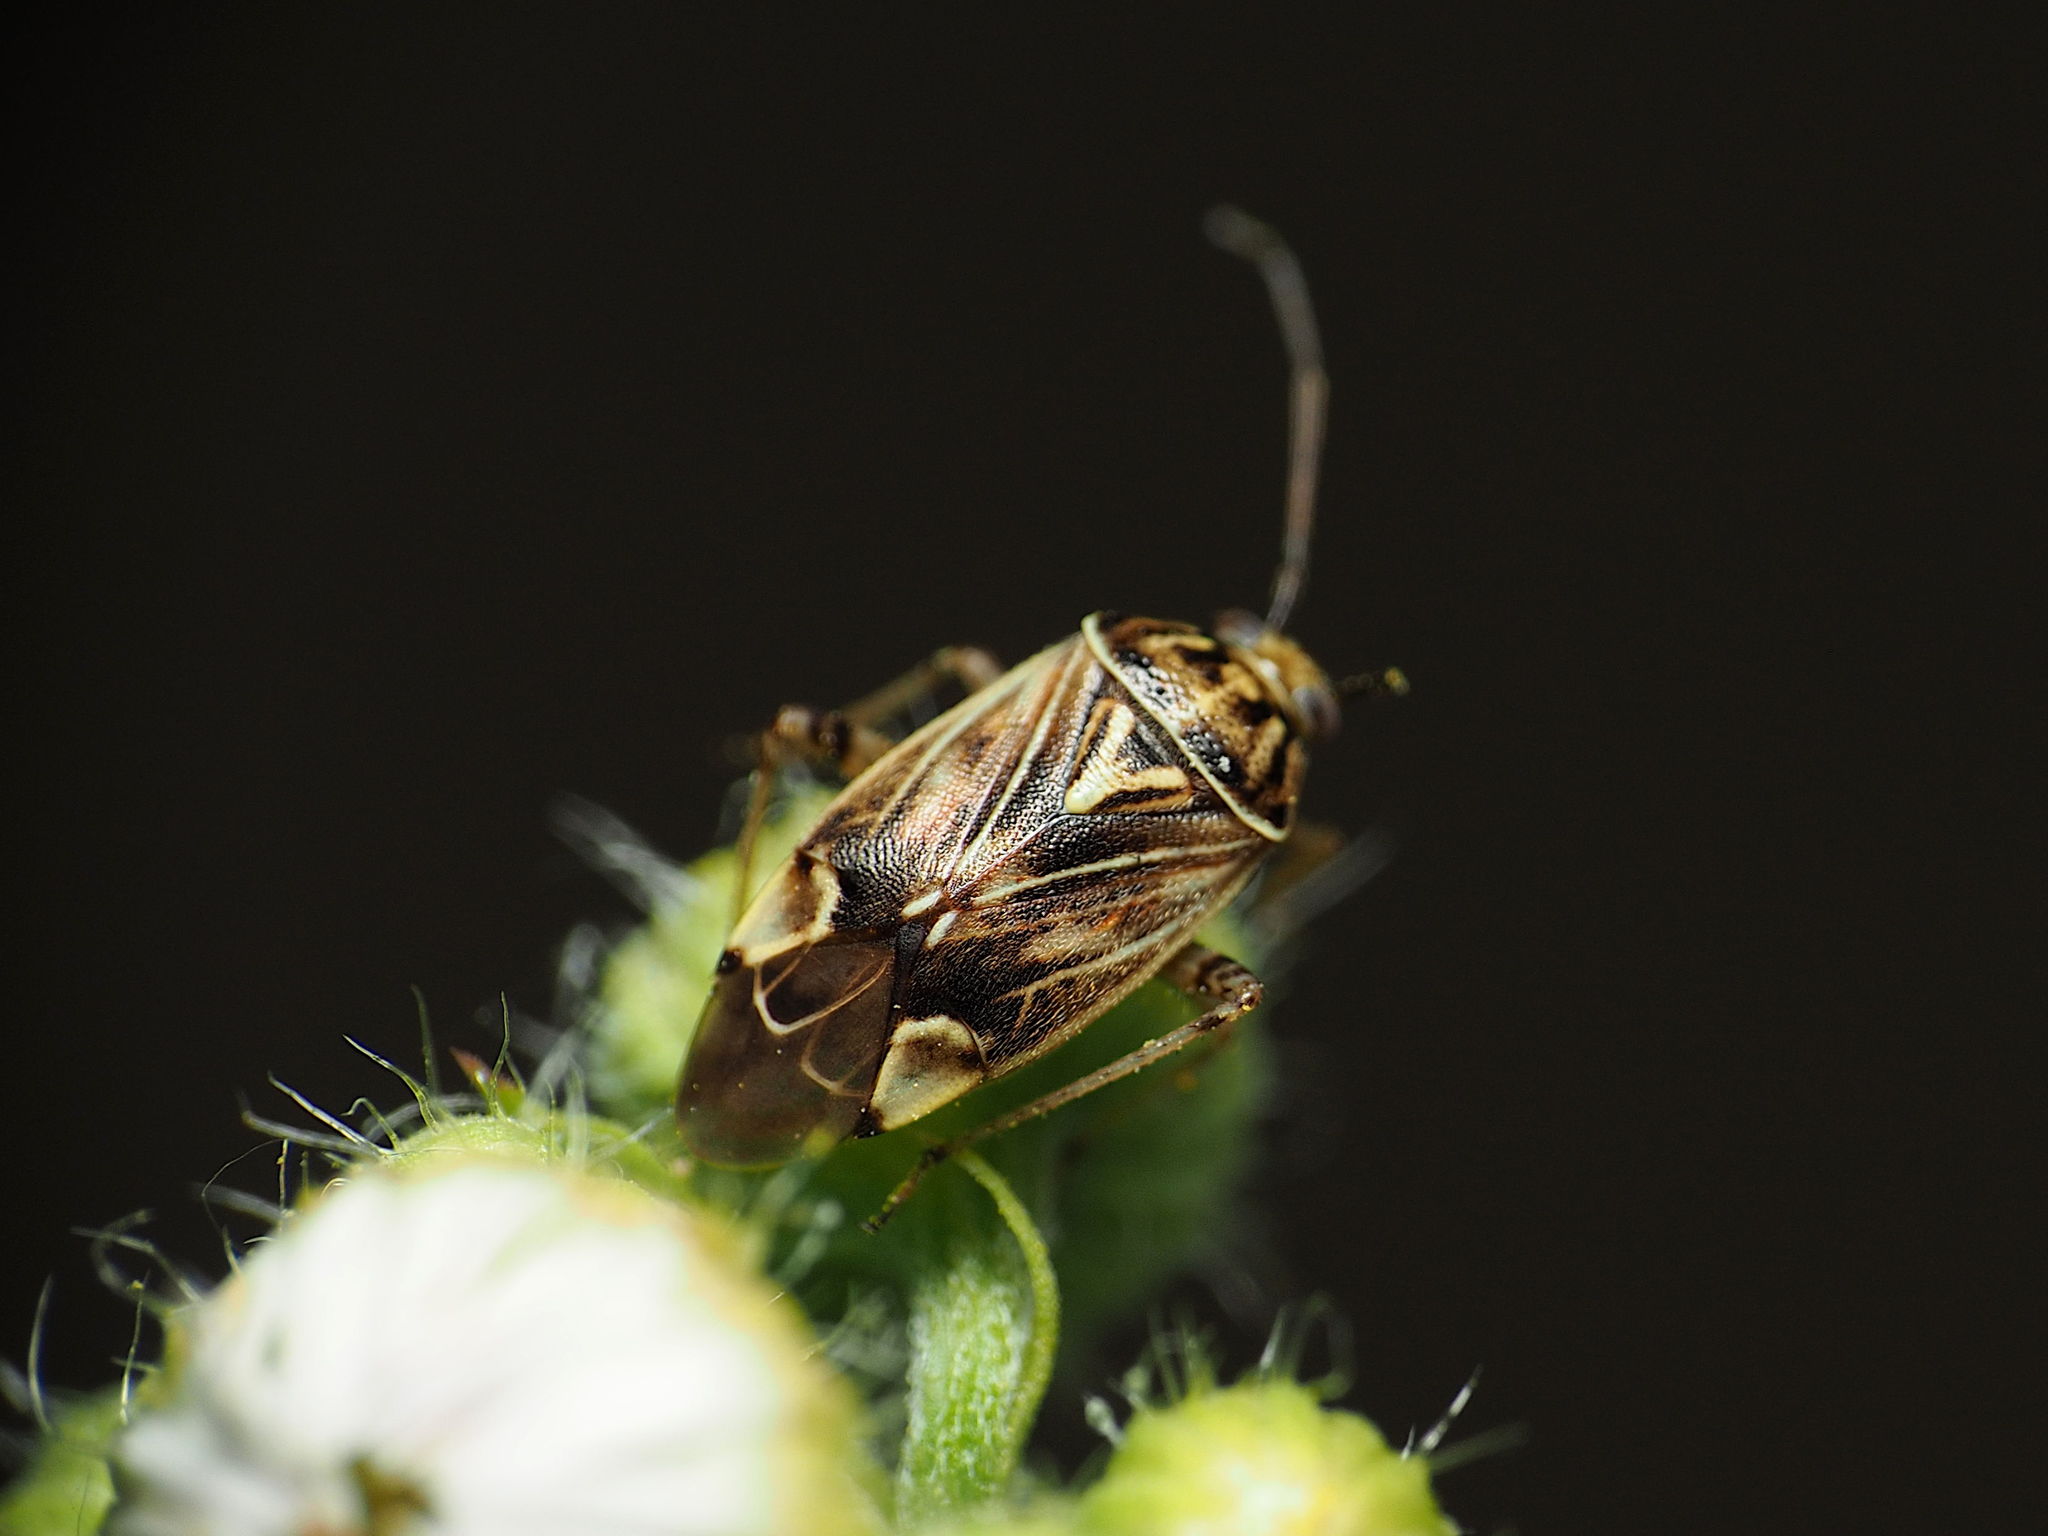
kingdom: Animalia
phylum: Arthropoda
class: Insecta
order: Hemiptera
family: Miridae
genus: Lygus
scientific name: Lygus lineolaris
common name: North american tarnished plant bug
